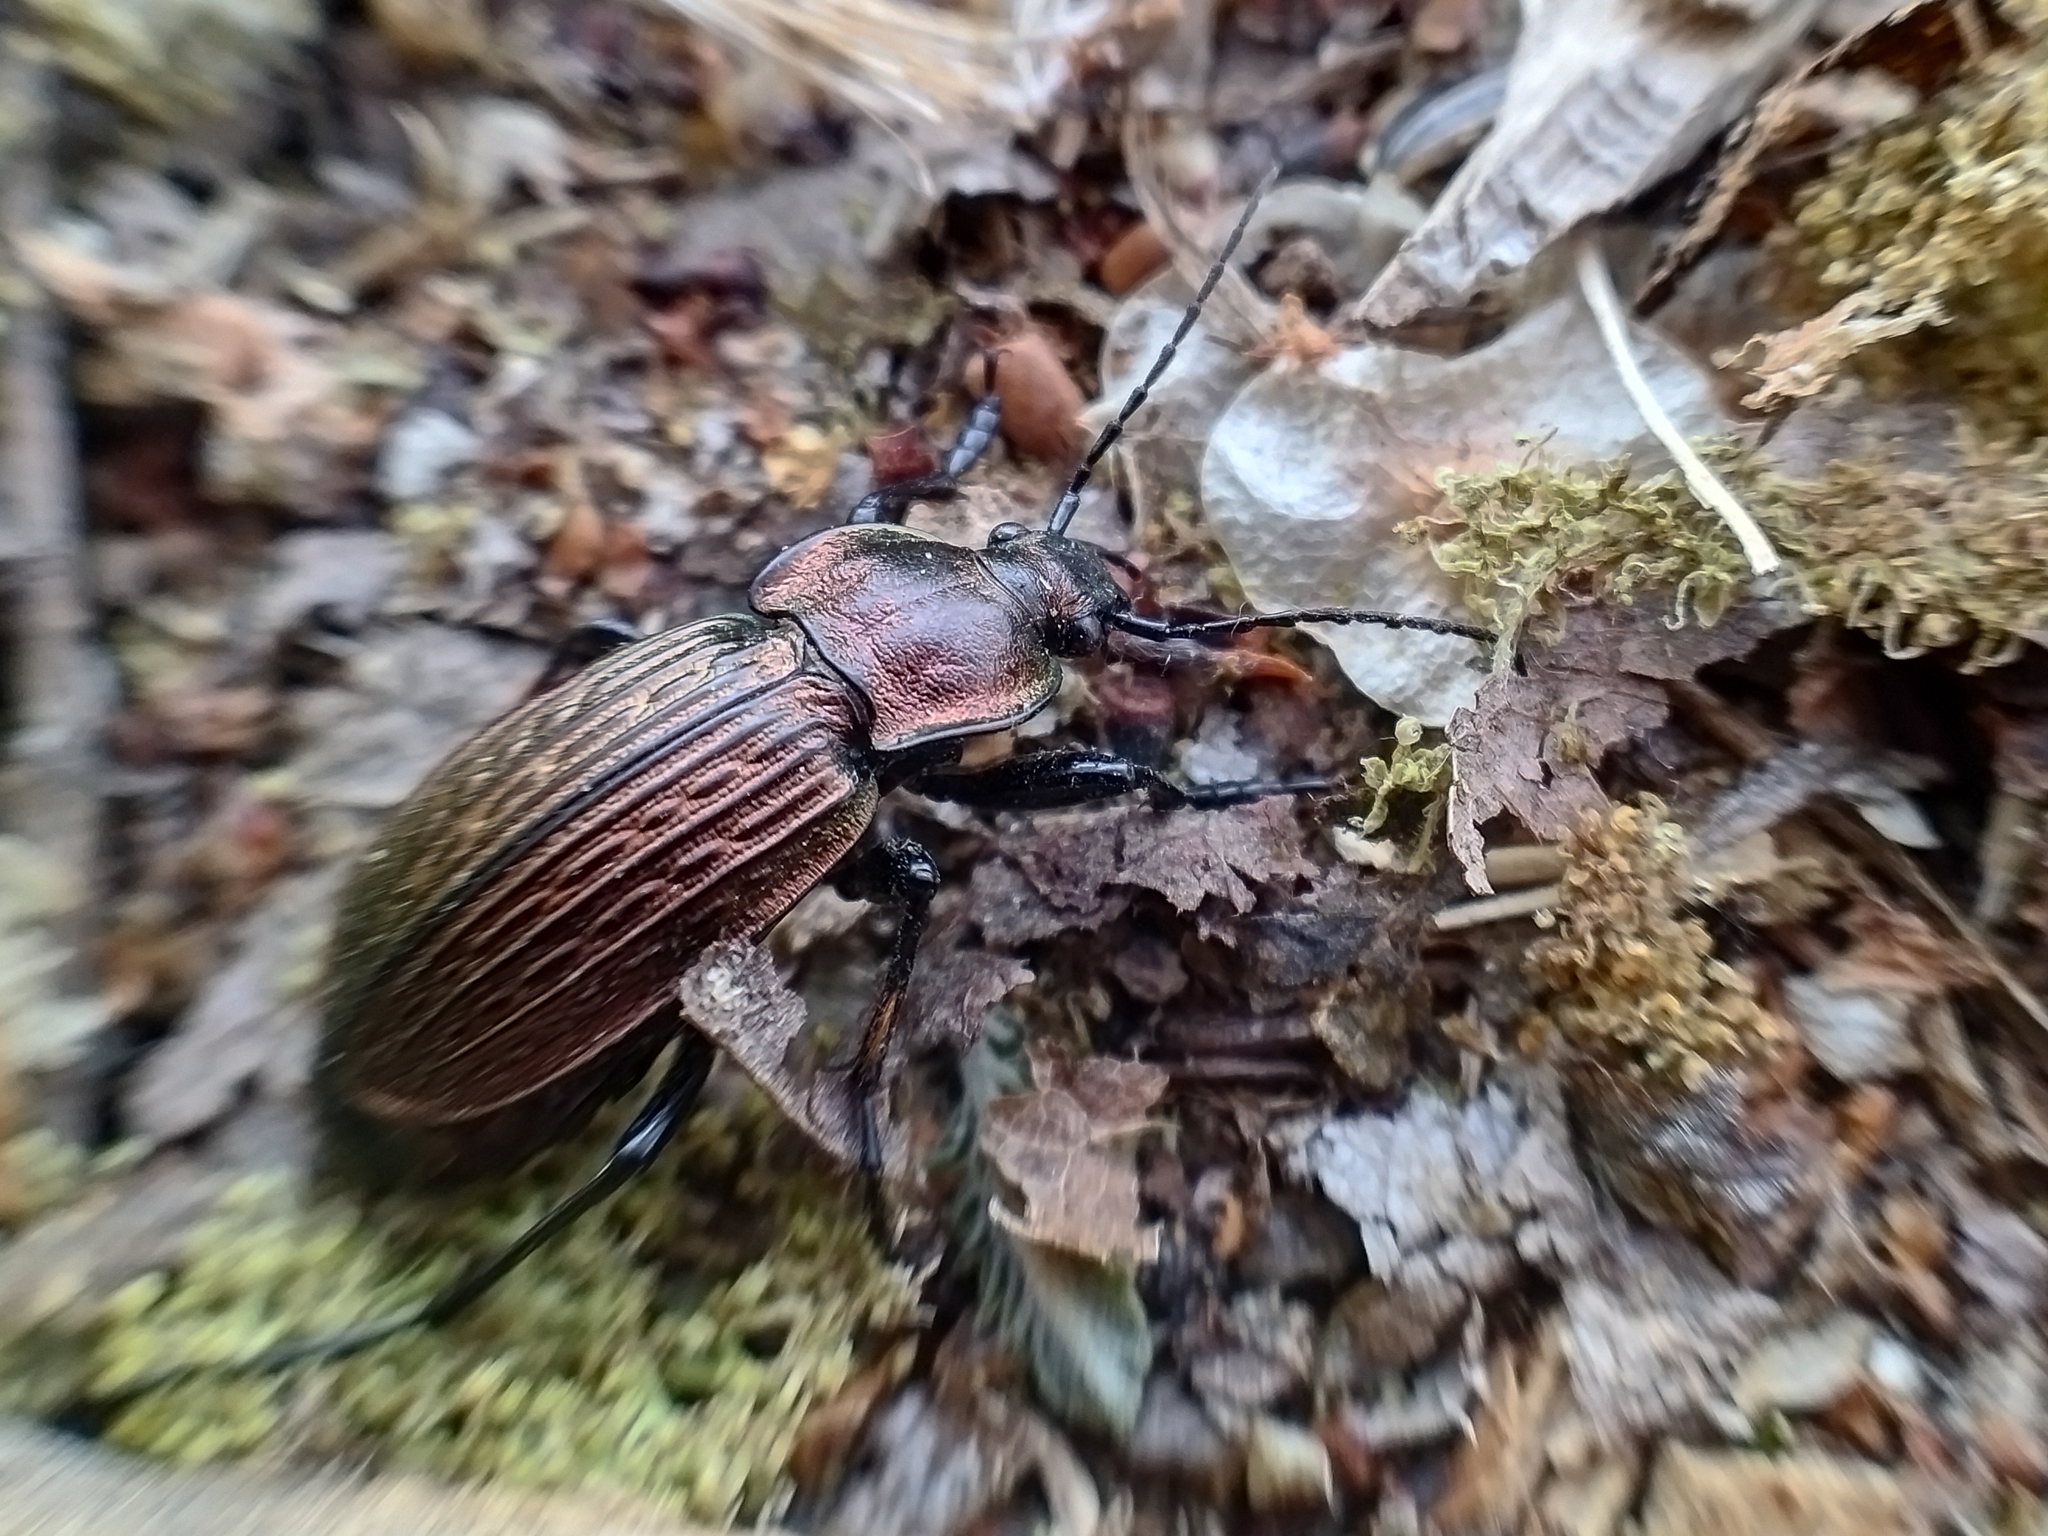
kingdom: Animalia
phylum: Arthropoda
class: Insecta
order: Coleoptera
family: Carabidae
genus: Carabus
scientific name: Carabus ulrichii
